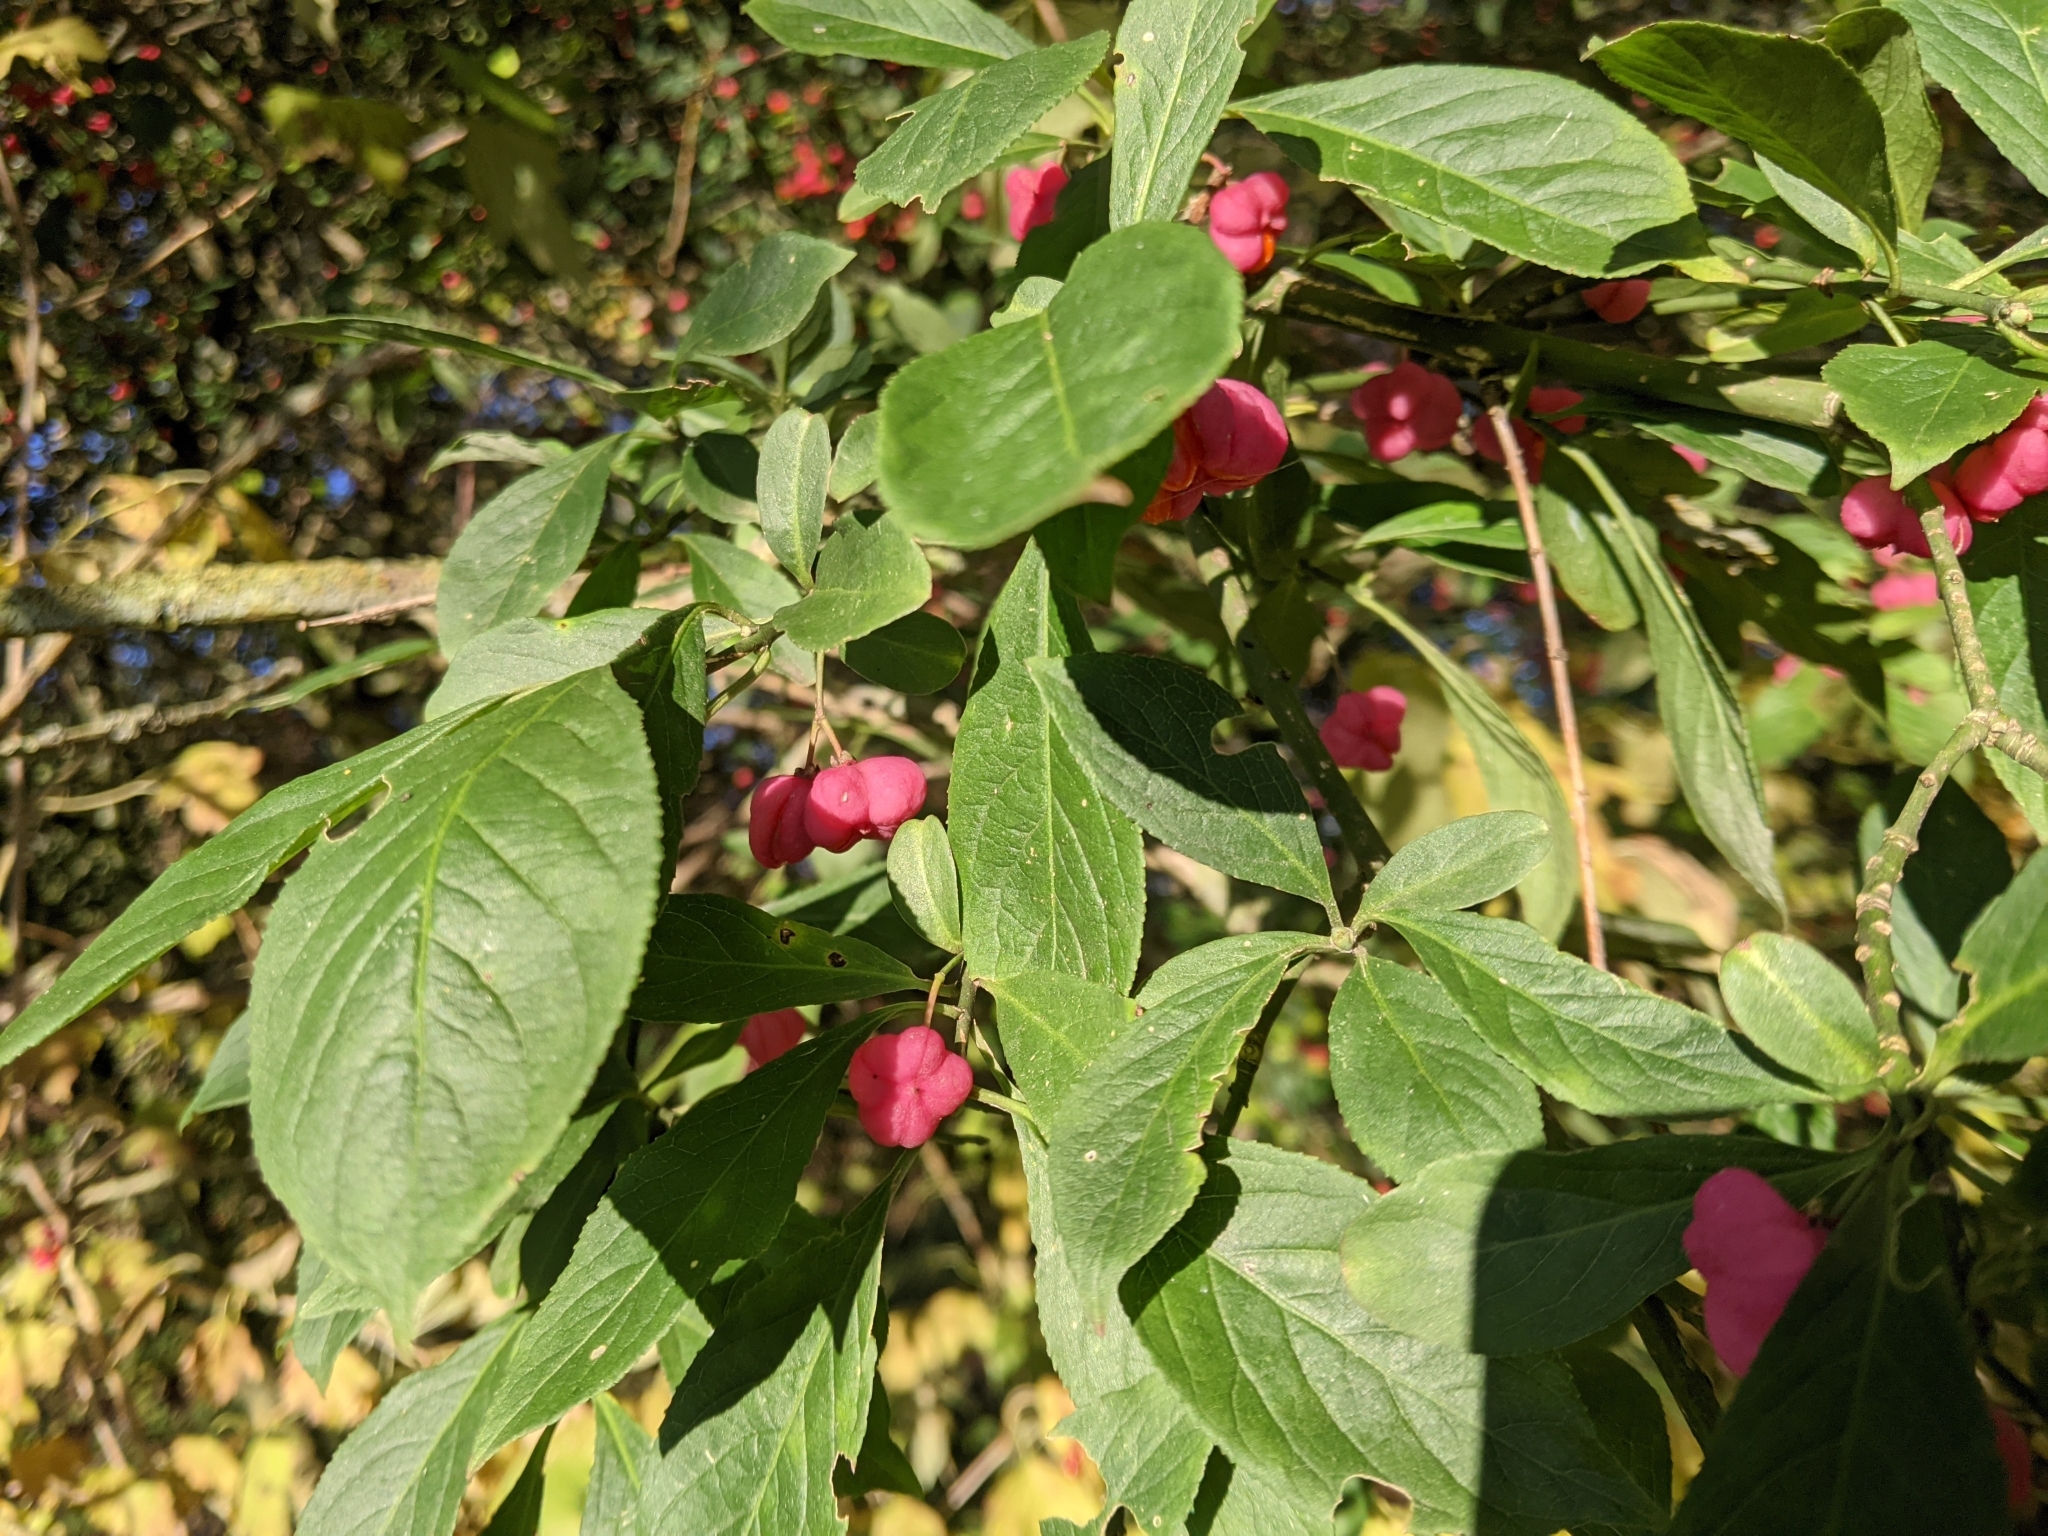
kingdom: Plantae
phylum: Tracheophyta
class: Magnoliopsida
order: Celastrales
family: Celastraceae
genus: Euonymus
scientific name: Euonymus europaeus
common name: Spindle
